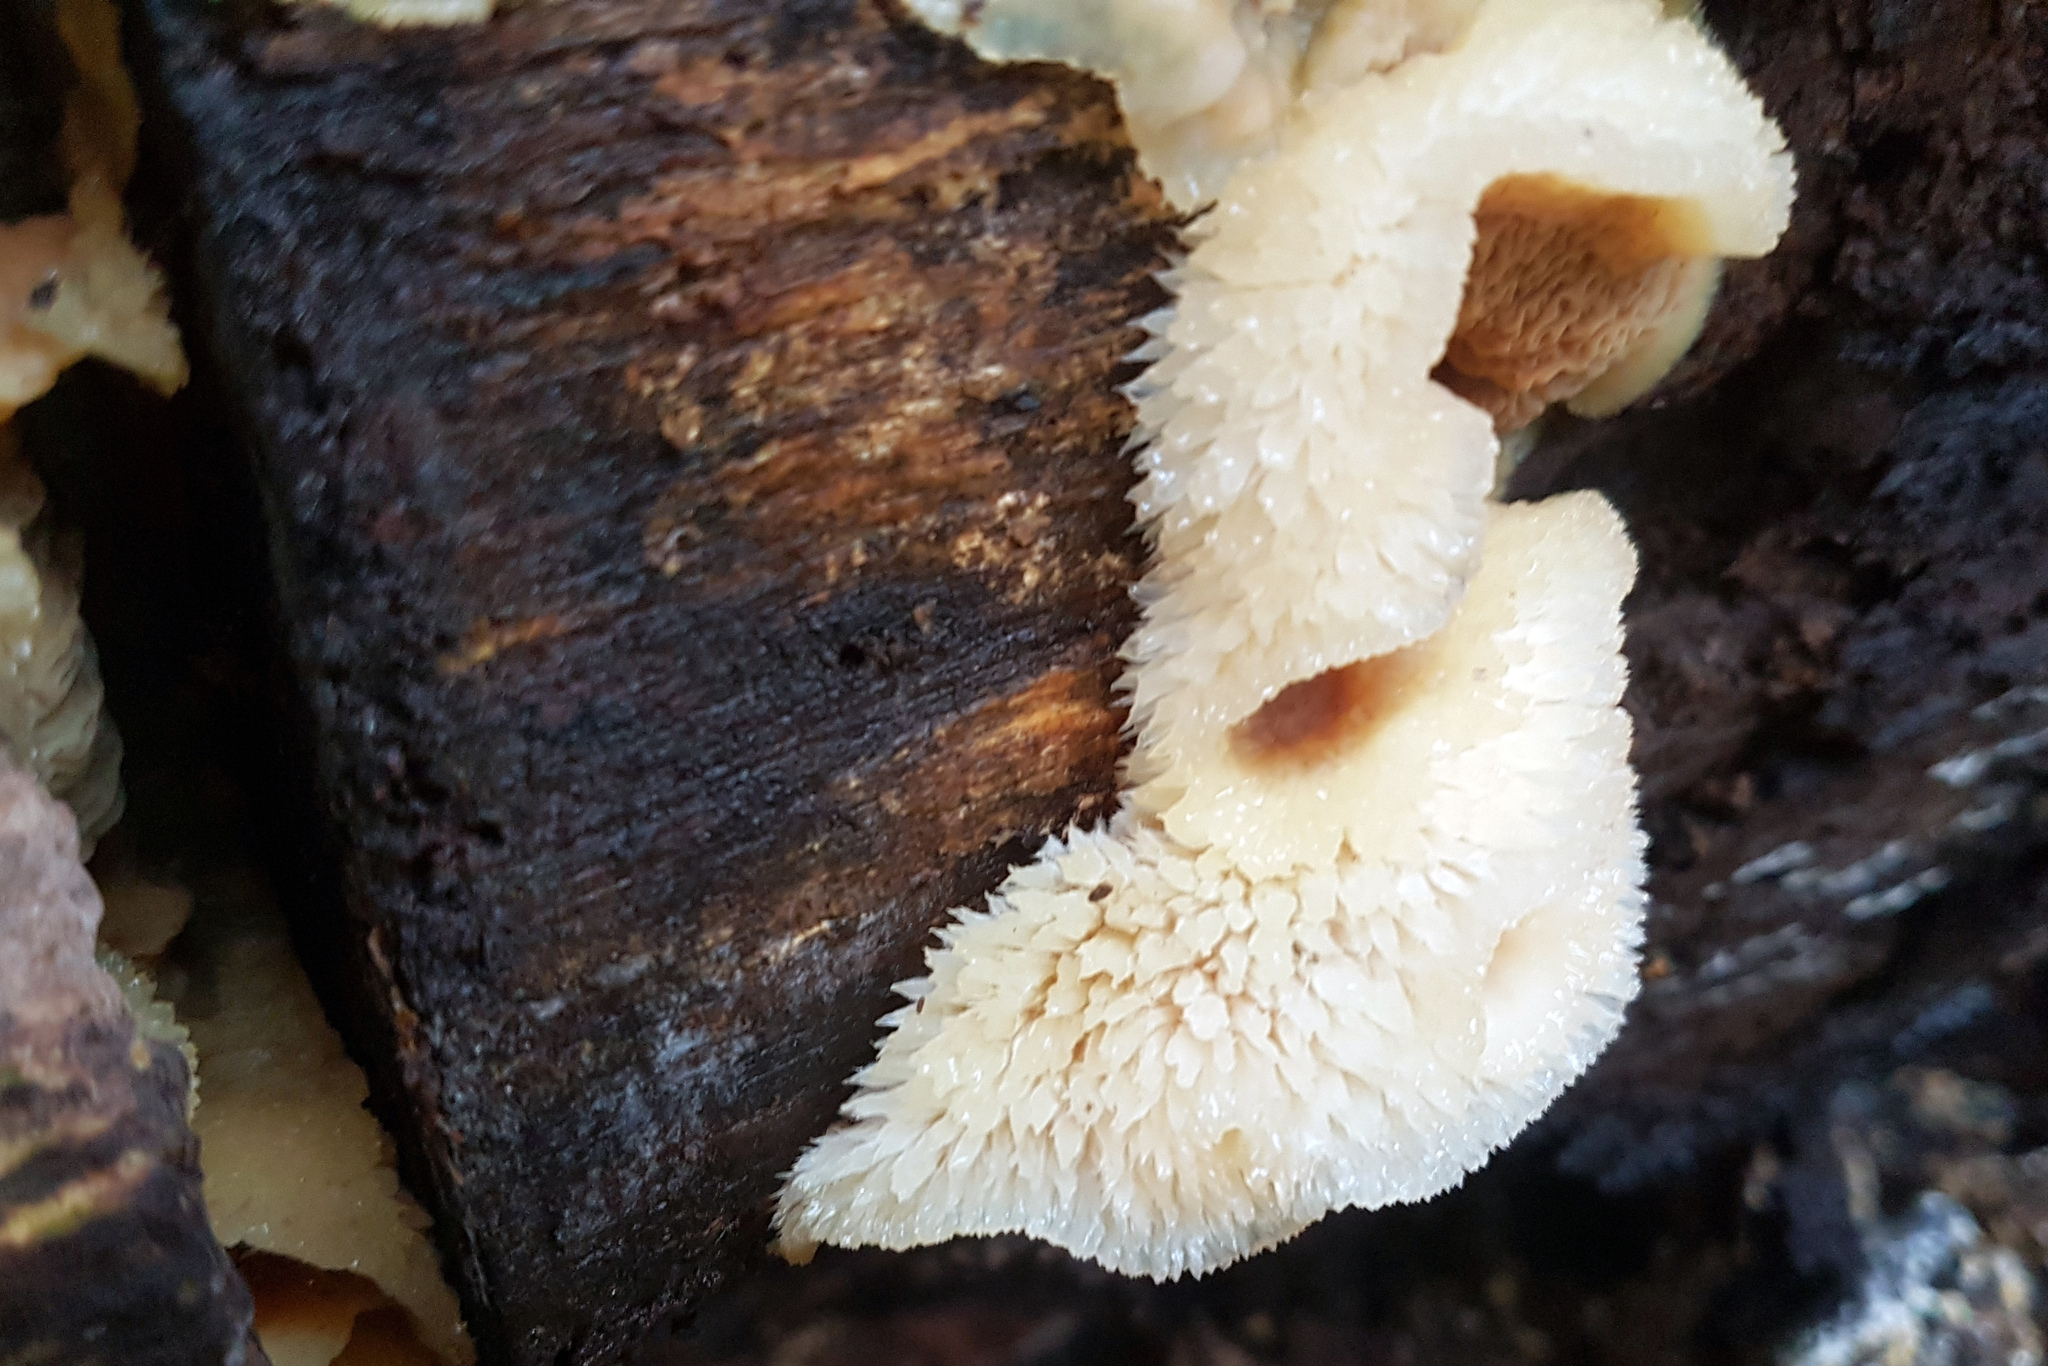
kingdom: Fungi
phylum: Basidiomycota
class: Agaricomycetes
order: Polyporales
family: Meruliaceae
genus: Phlebia
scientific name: Phlebia tremellosa
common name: Jelly rot
